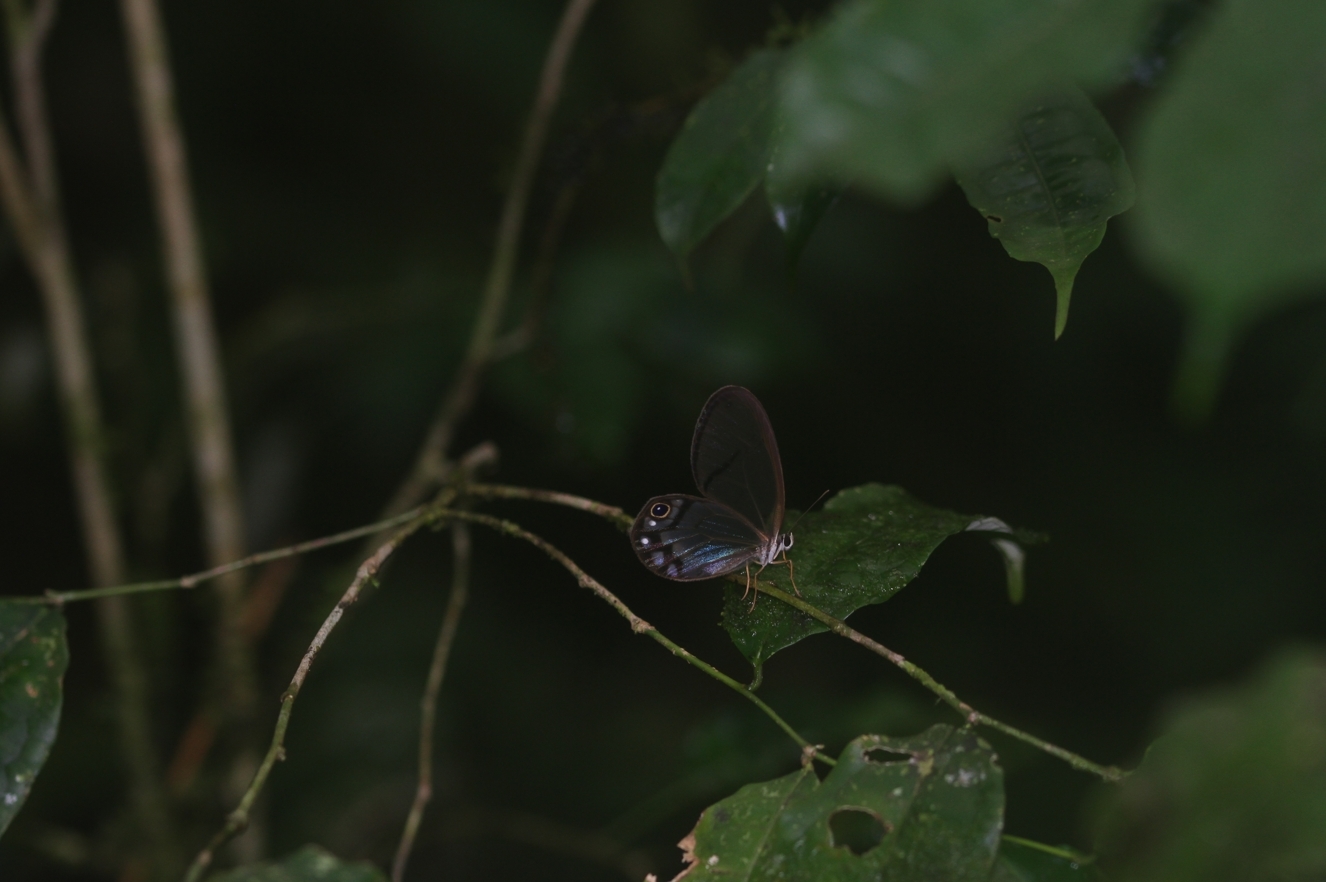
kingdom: Animalia
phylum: Arthropoda
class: Insecta
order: Lepidoptera
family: Nymphalidae
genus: Cithaerias
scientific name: Cithaerias pireta
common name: Rusted clearwing-satyr
